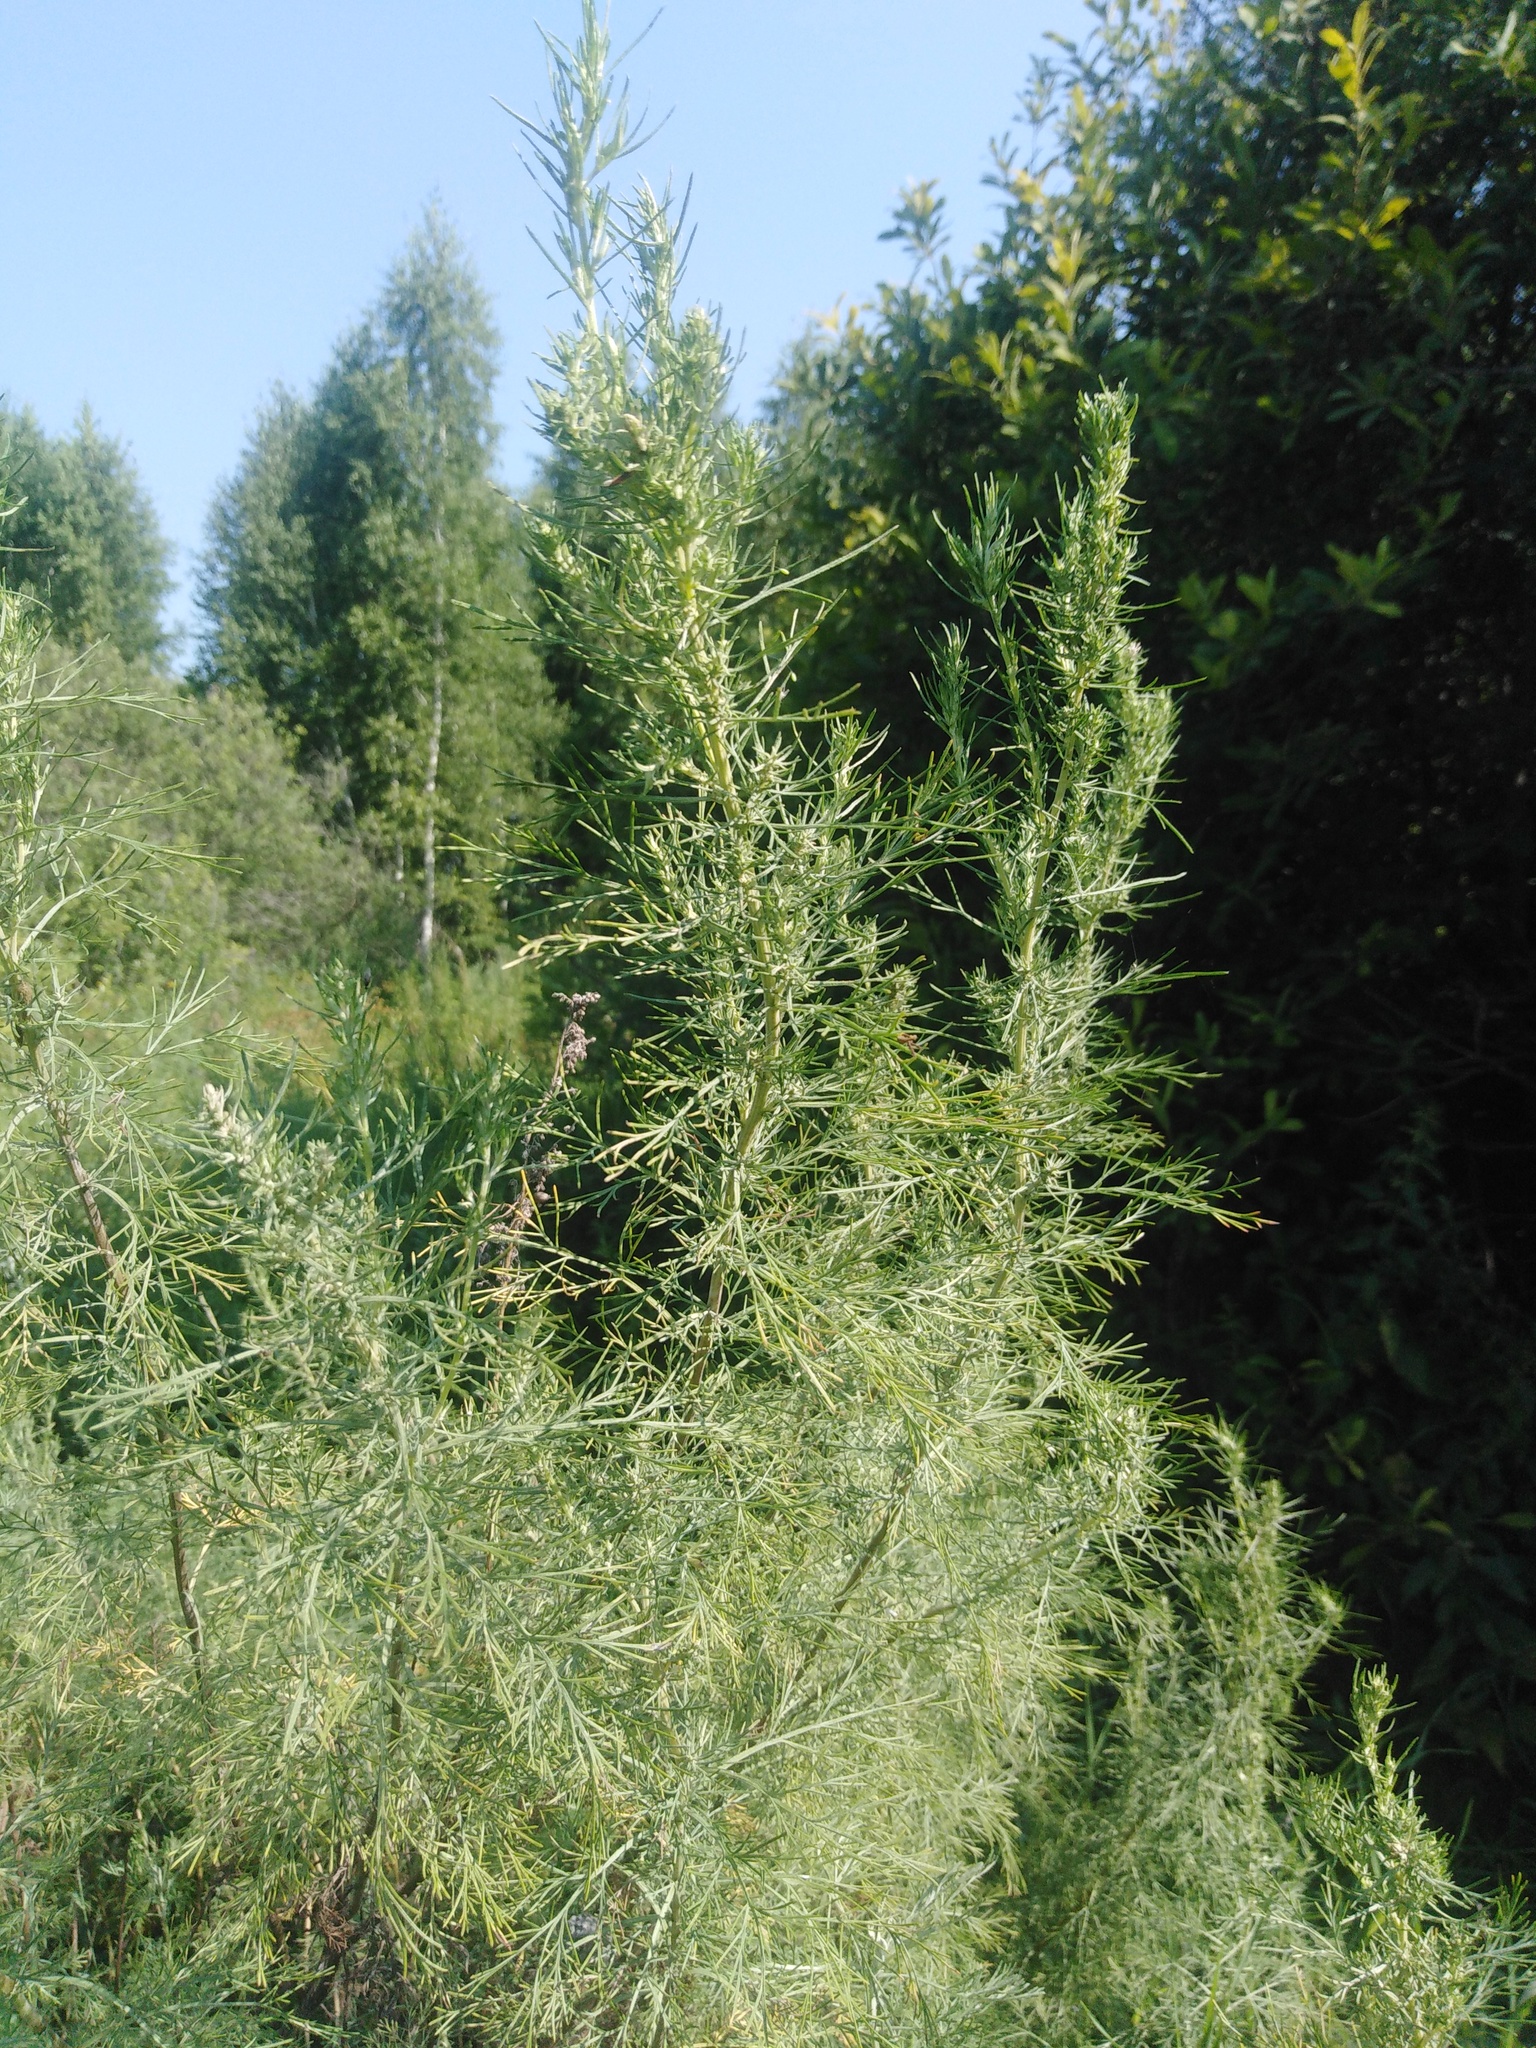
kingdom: Plantae
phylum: Tracheophyta
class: Magnoliopsida
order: Asterales
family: Asteraceae
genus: Artemisia
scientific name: Artemisia abrotanum
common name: Southernwood
